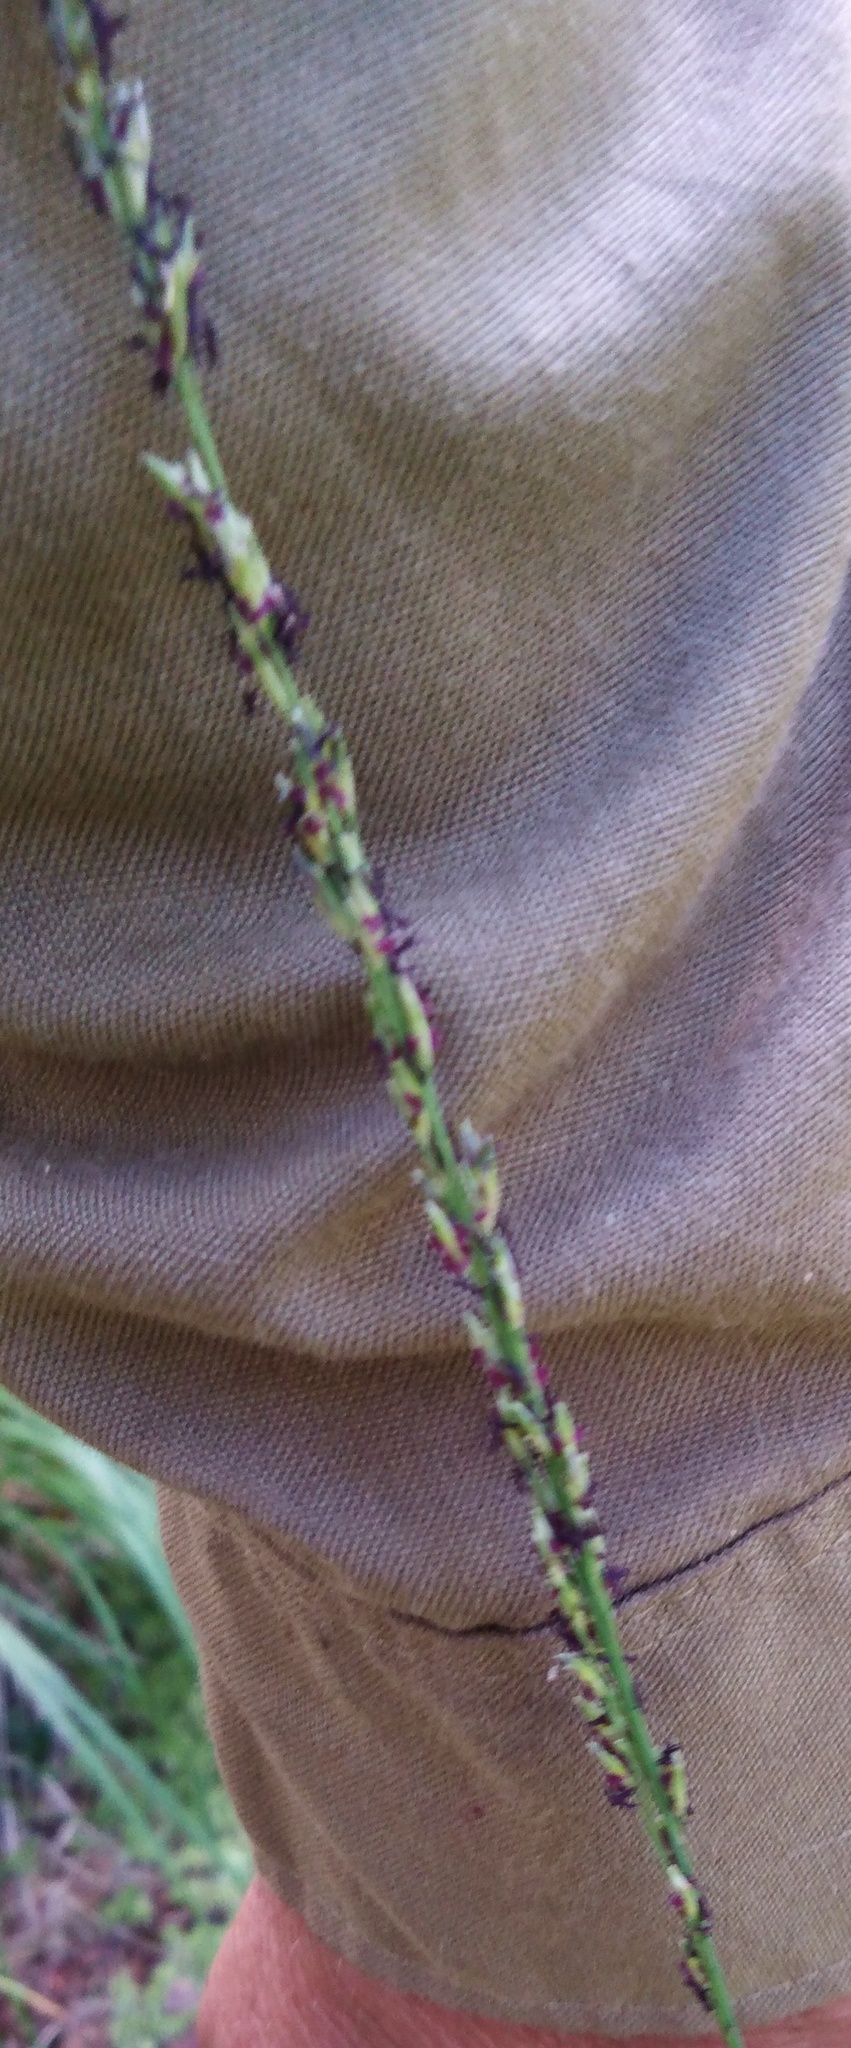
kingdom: Plantae
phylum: Tracheophyta
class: Liliopsida
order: Poales
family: Poaceae
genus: Molinia
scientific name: Molinia caerulea
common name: Purple moor-grass
